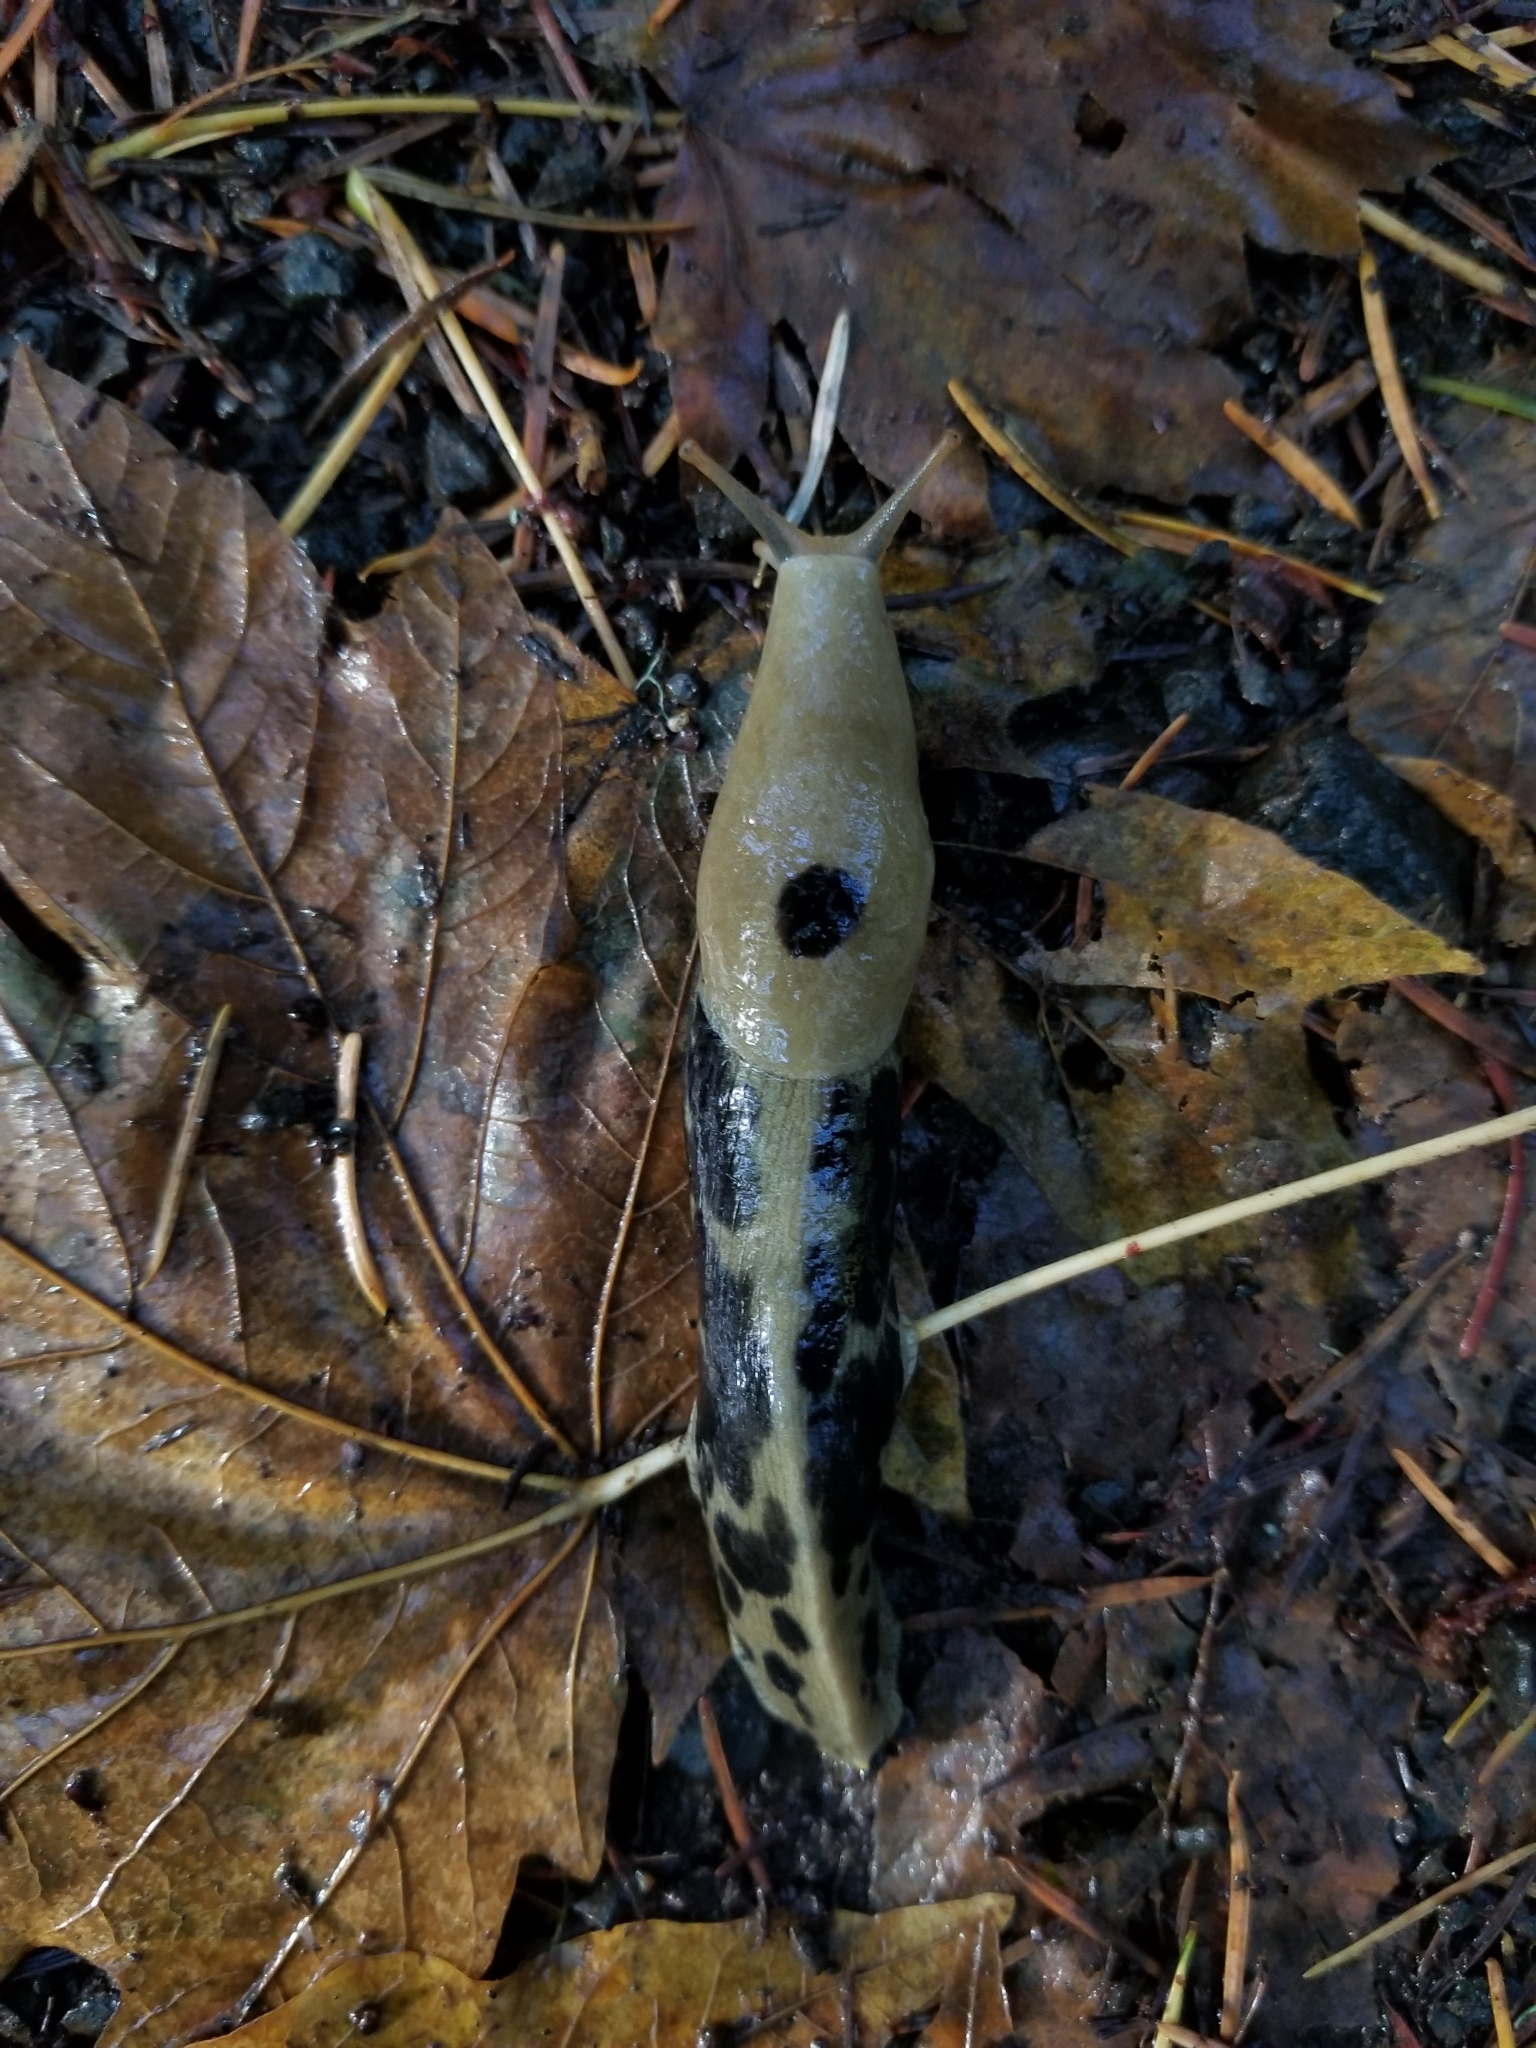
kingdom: Animalia
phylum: Mollusca
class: Gastropoda
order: Stylommatophora
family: Ariolimacidae
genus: Ariolimax
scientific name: Ariolimax columbianus
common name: Pacific banana slug
